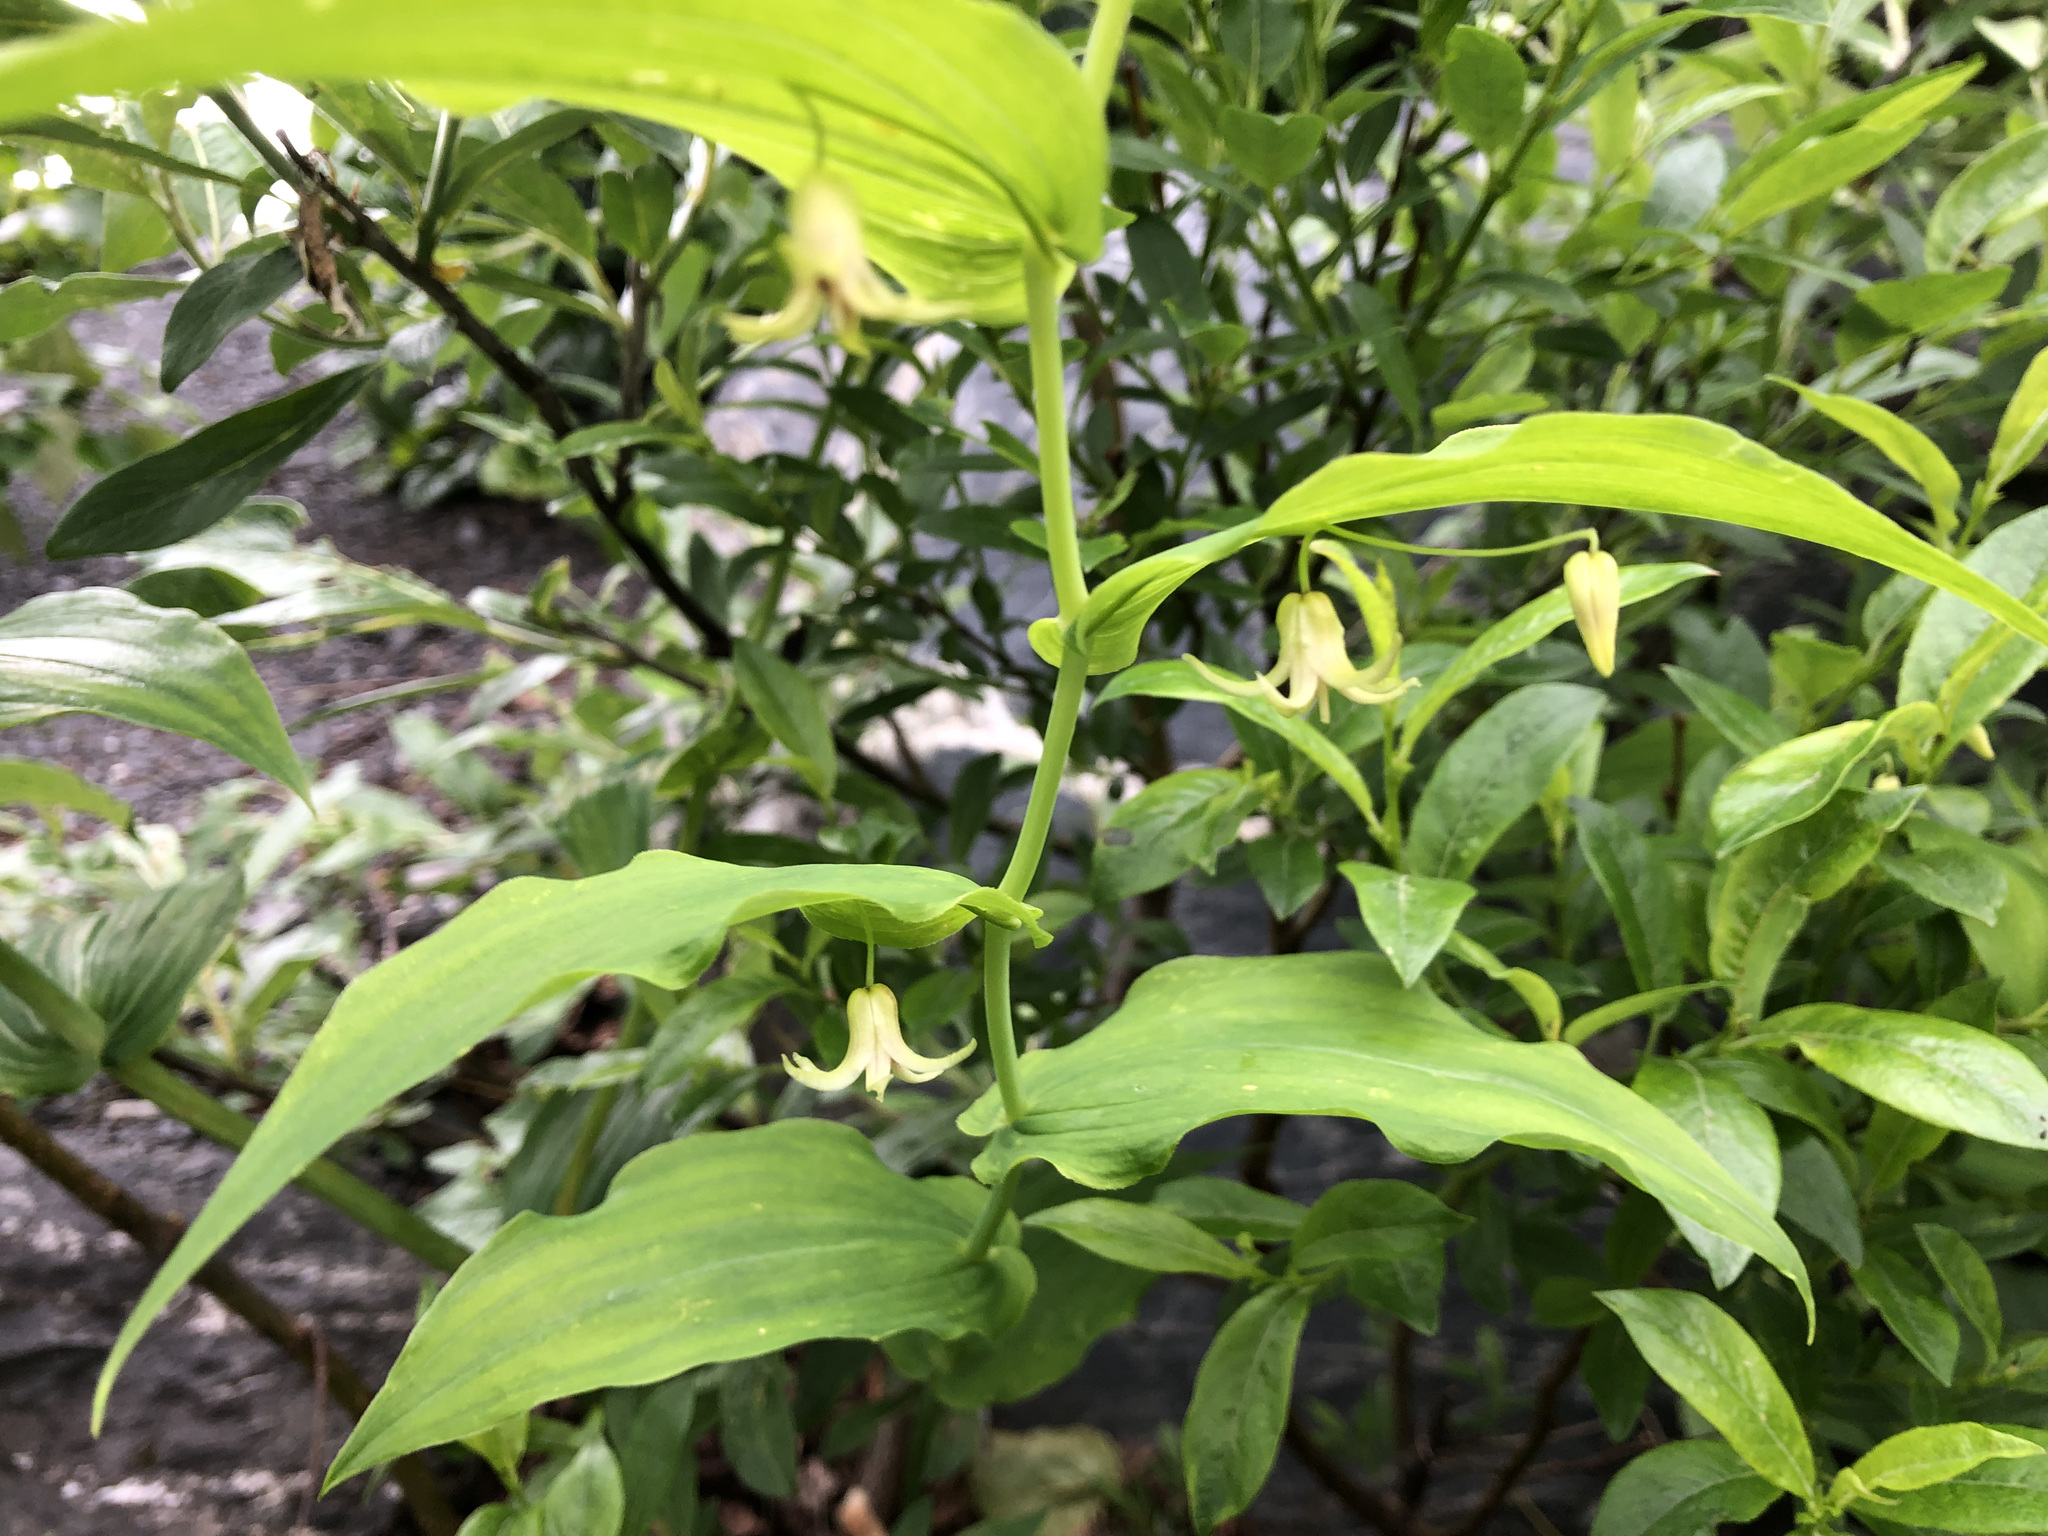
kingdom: Plantae
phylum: Tracheophyta
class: Liliopsida
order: Liliales
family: Liliaceae
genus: Streptopus
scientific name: Streptopus amplexifolius
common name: Clasp twisted stalk
